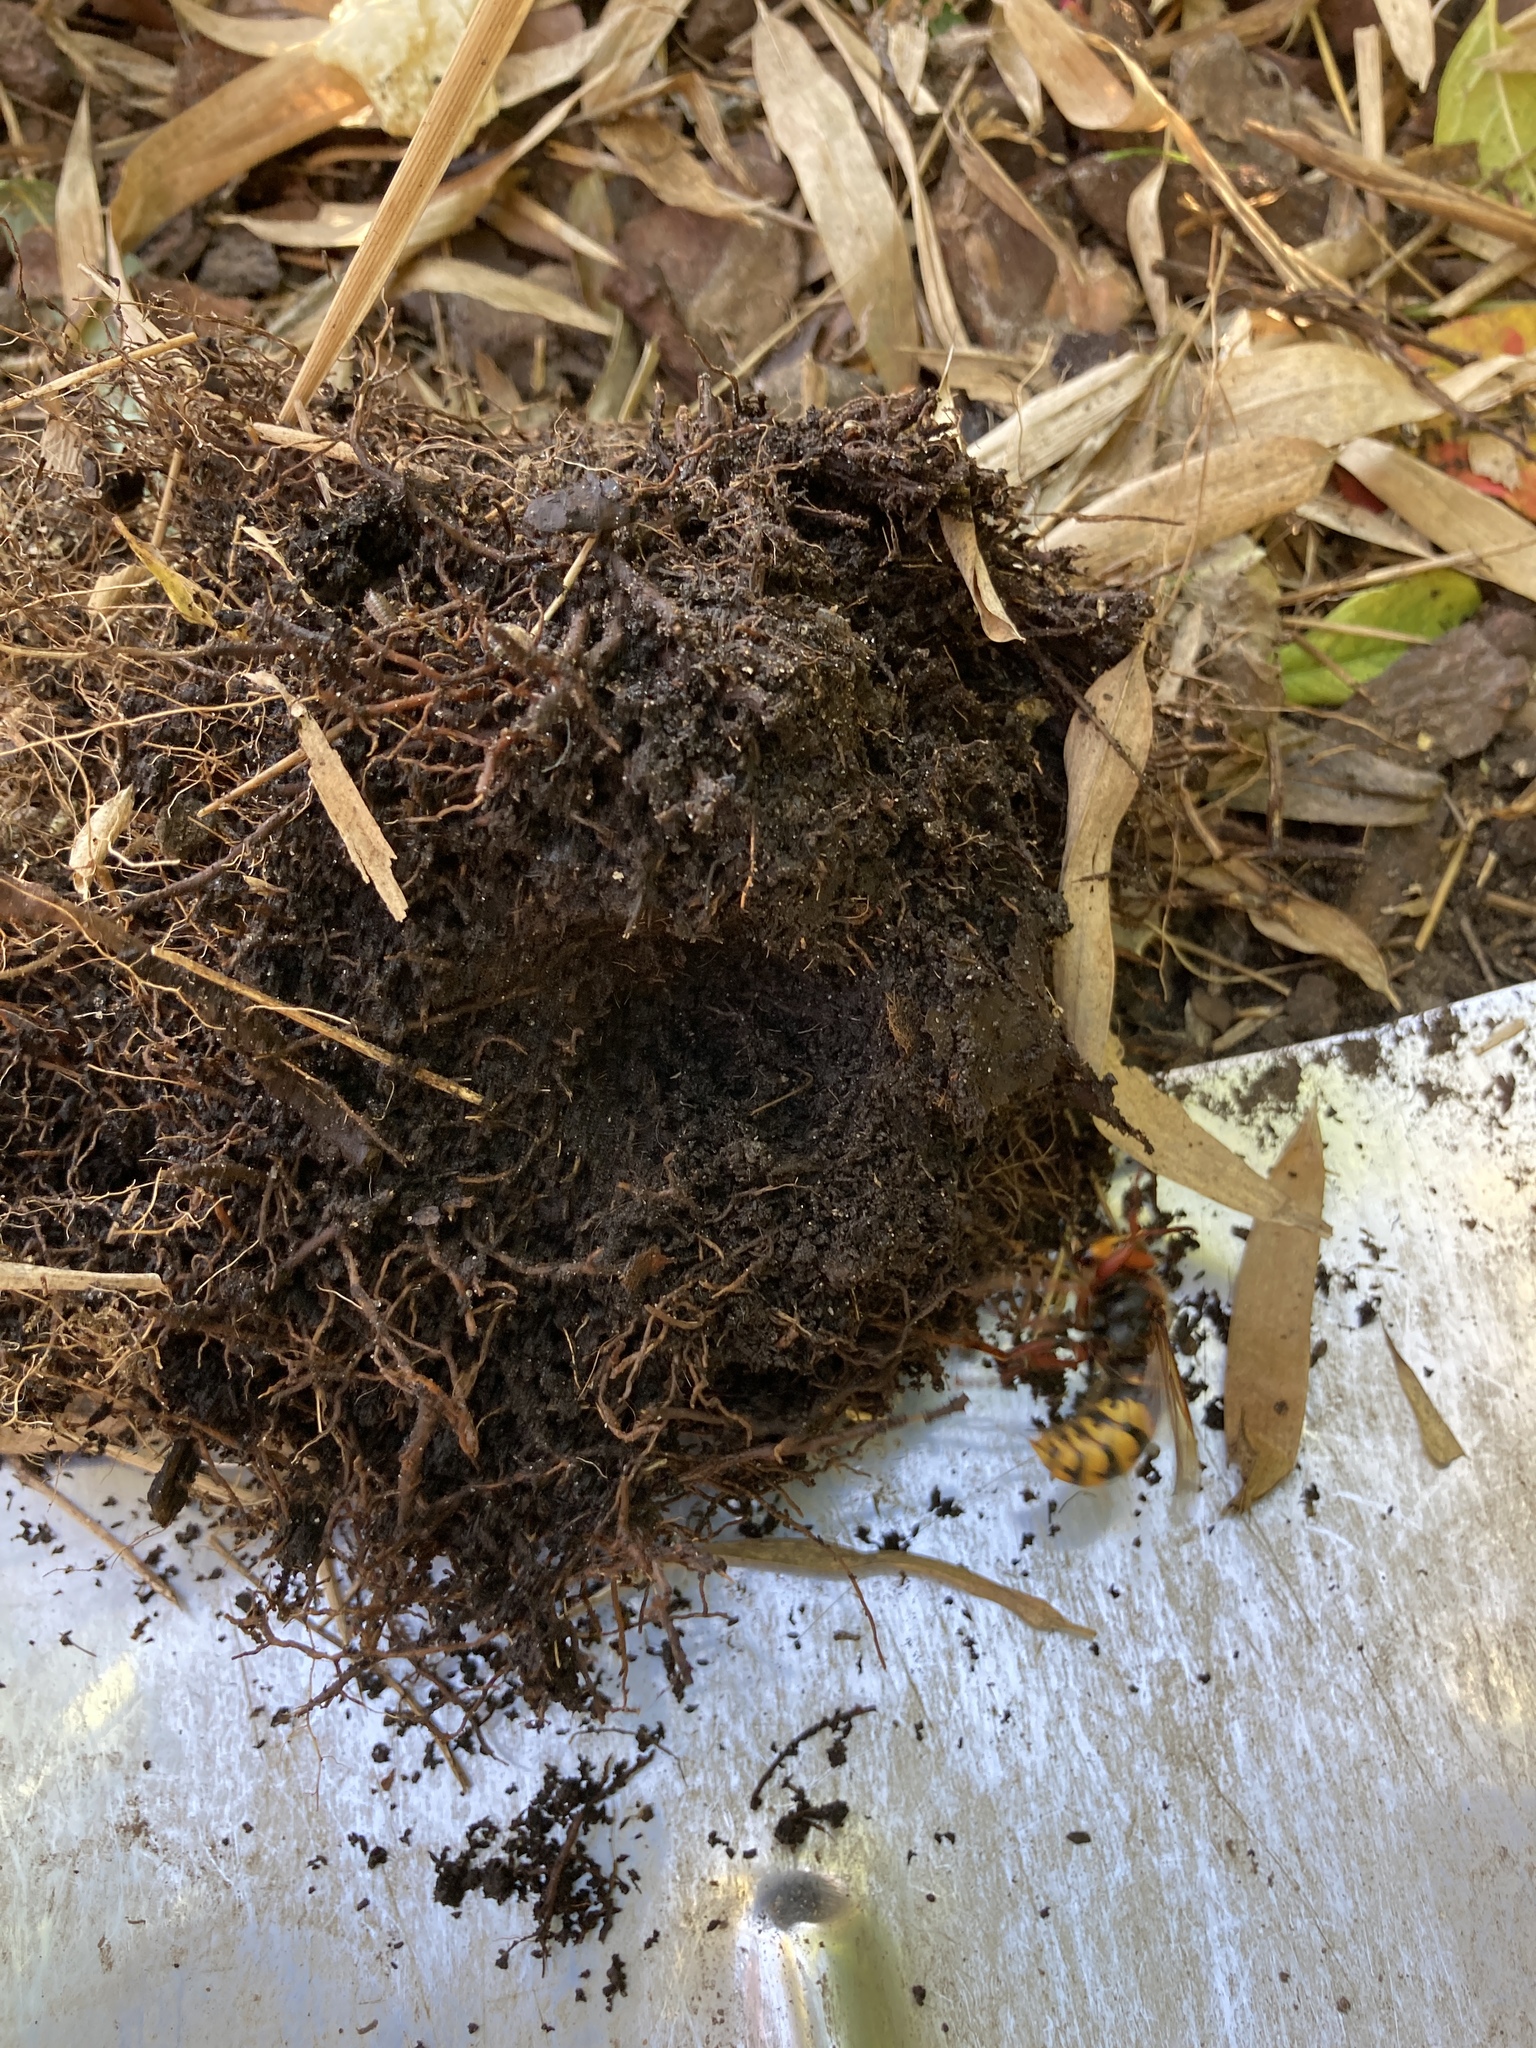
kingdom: Animalia
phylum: Arthropoda
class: Insecta
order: Hymenoptera
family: Vespidae
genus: Vespa
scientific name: Vespa crabro
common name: Hornet
